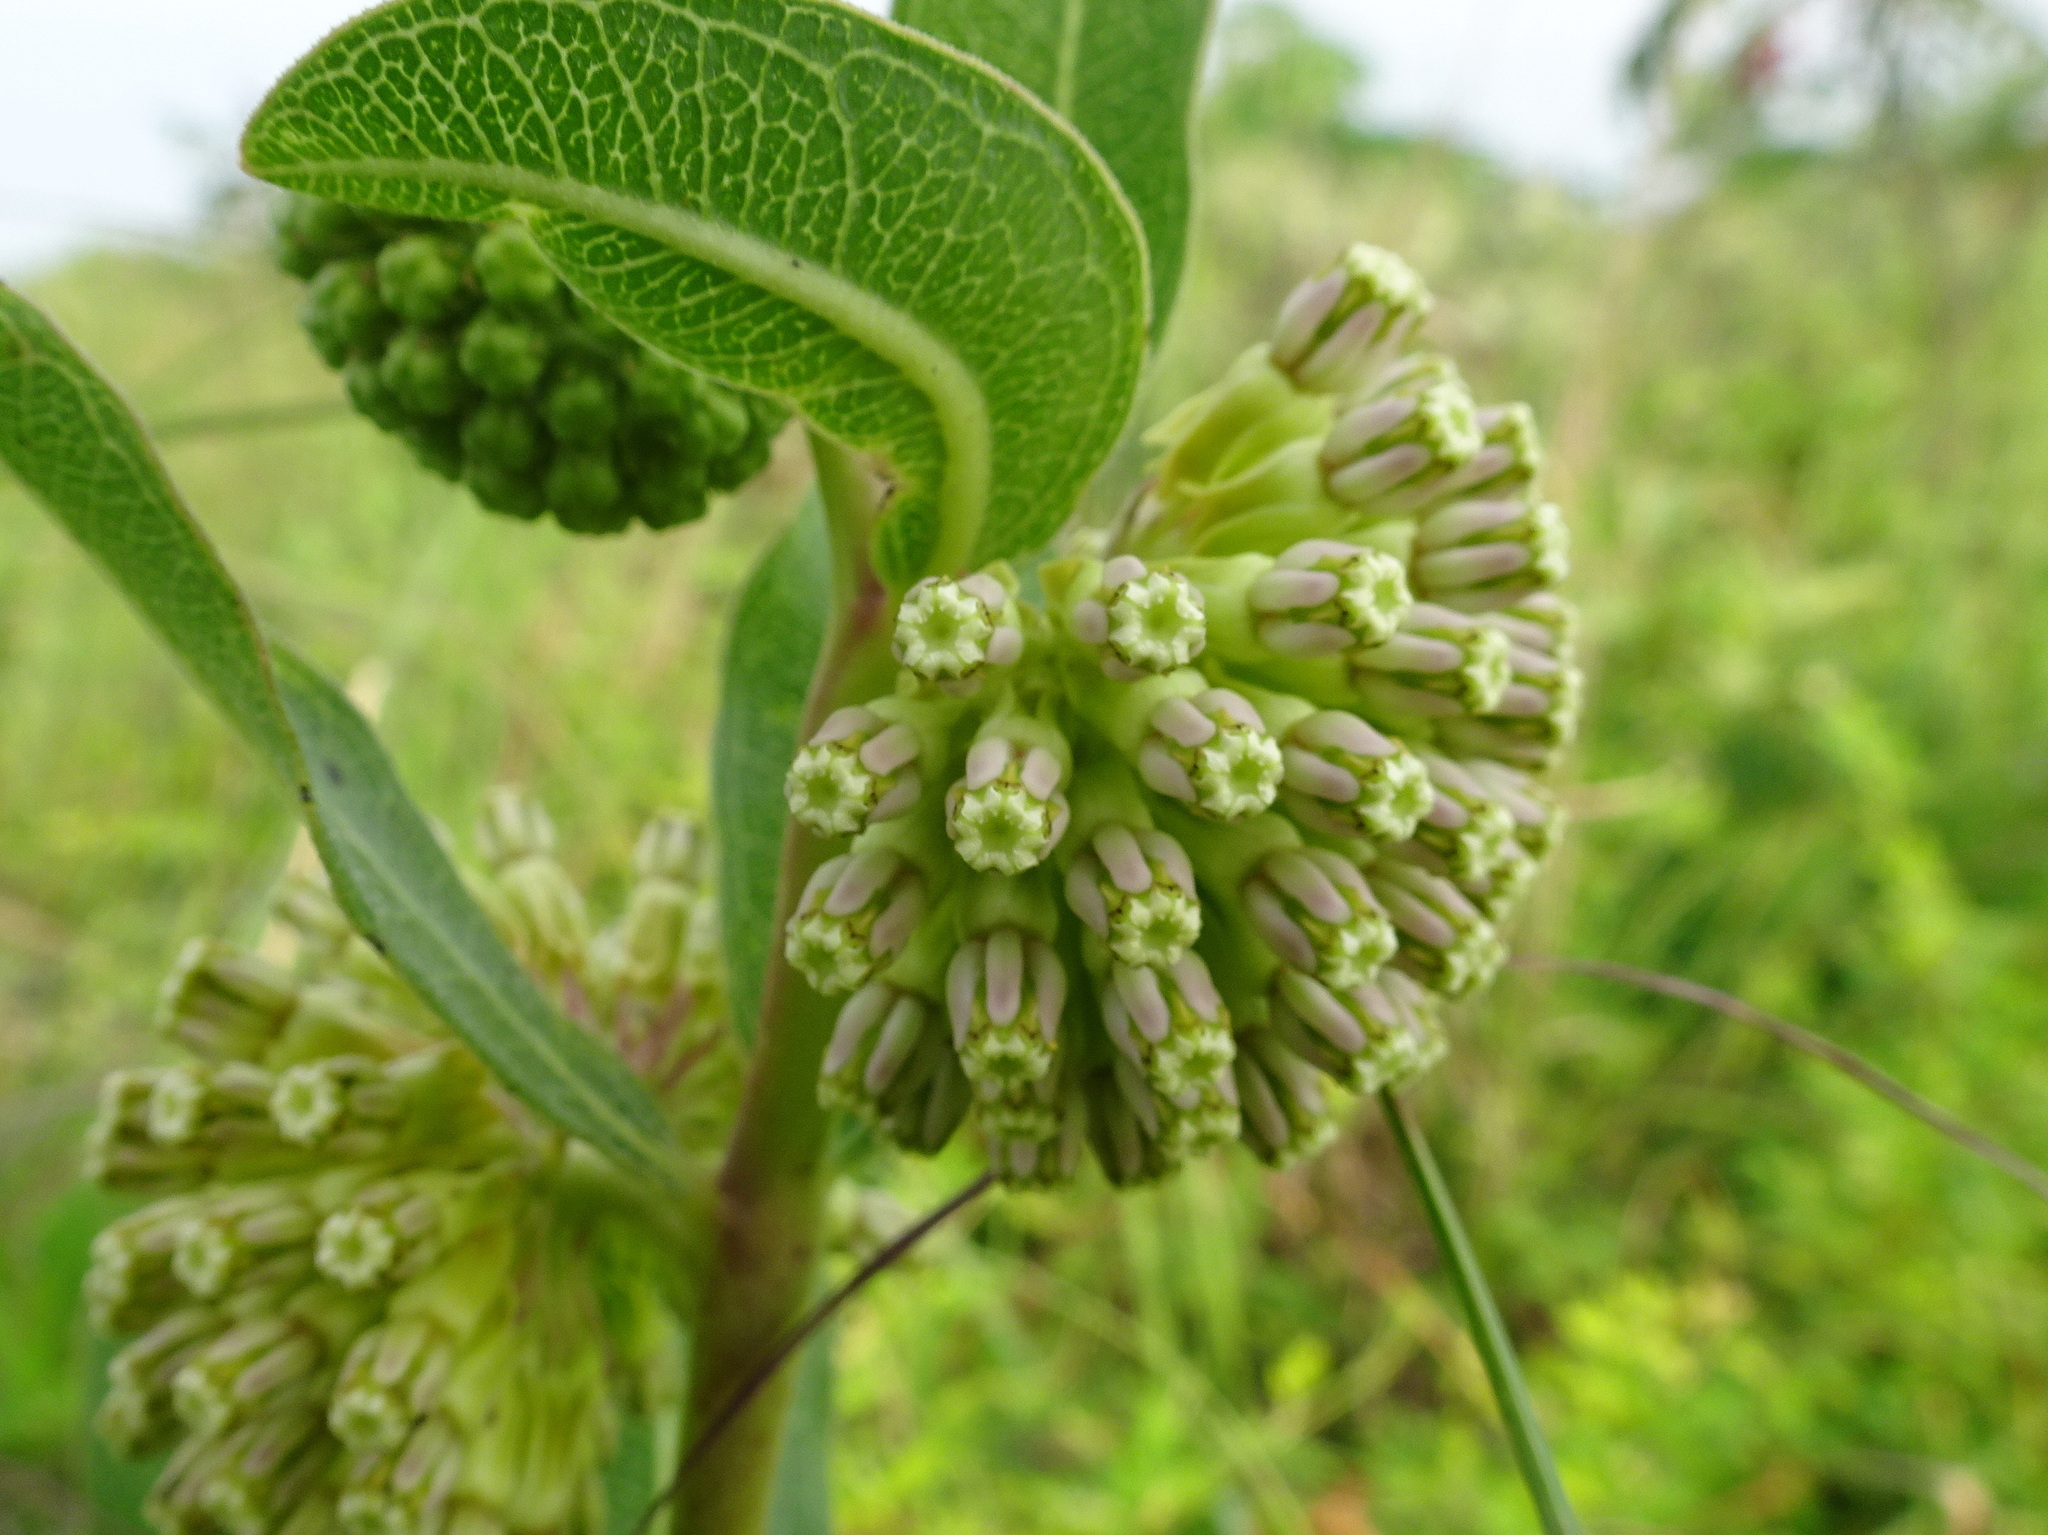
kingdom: Plantae
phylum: Tracheophyta
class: Magnoliopsida
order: Gentianales
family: Apocynaceae
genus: Asclepias
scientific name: Asclepias viridiflora
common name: Green comet milkweed
